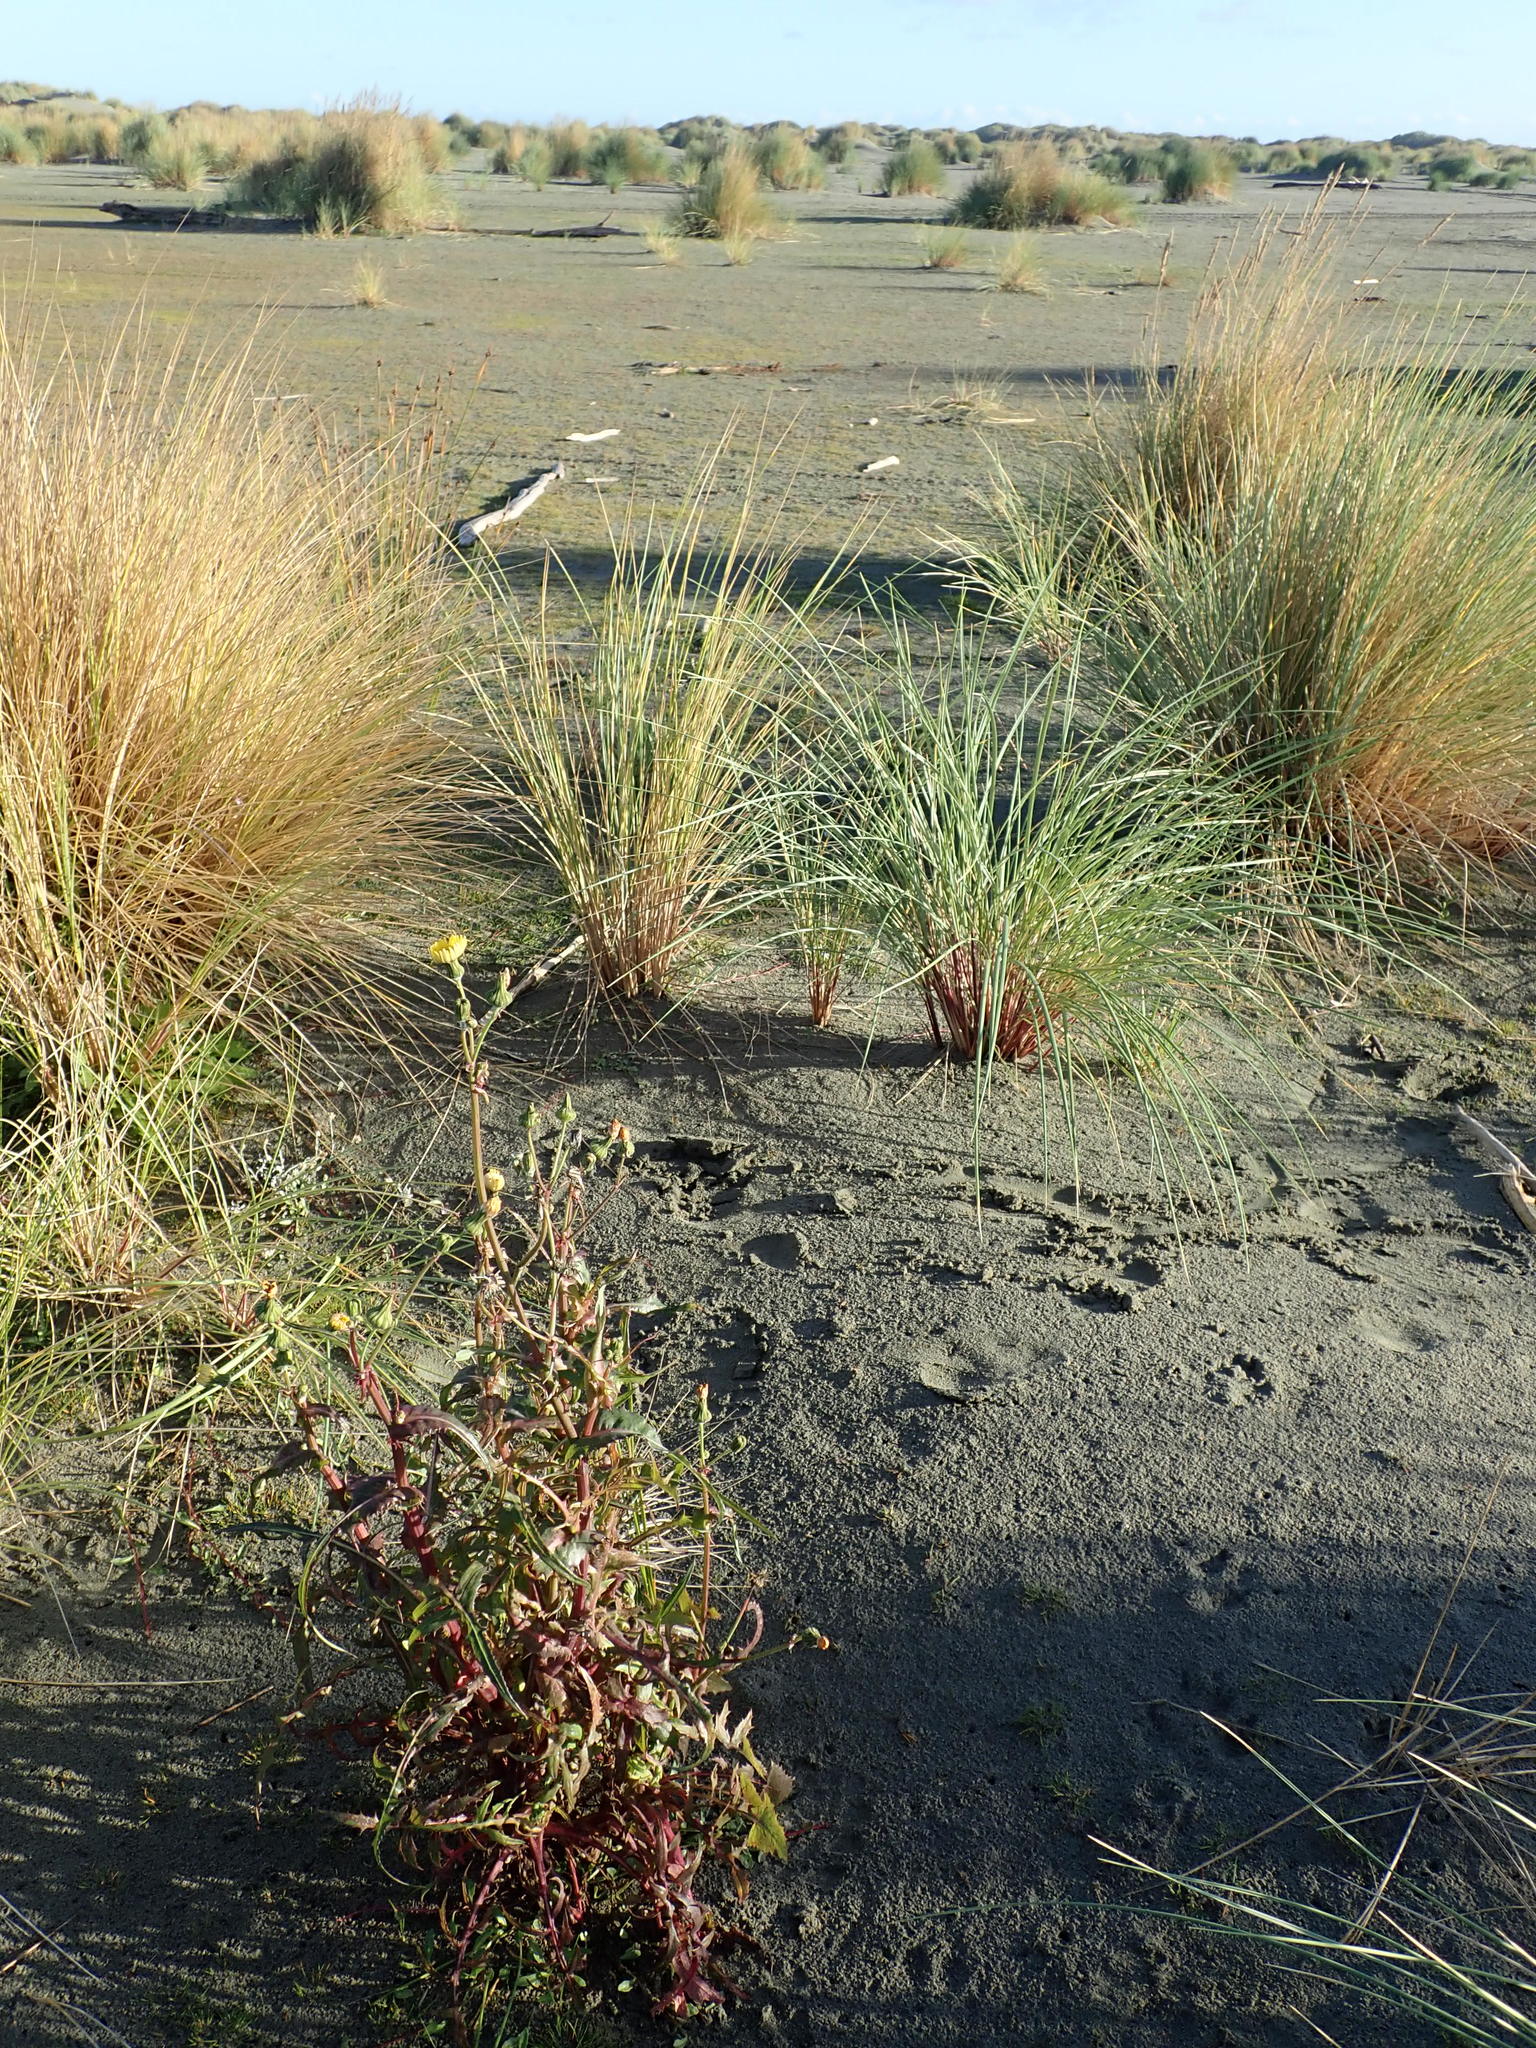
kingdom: Plantae
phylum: Tracheophyta
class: Magnoliopsida
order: Asterales
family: Asteraceae
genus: Sonchus
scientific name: Sonchus oleraceus
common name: Common sowthistle
